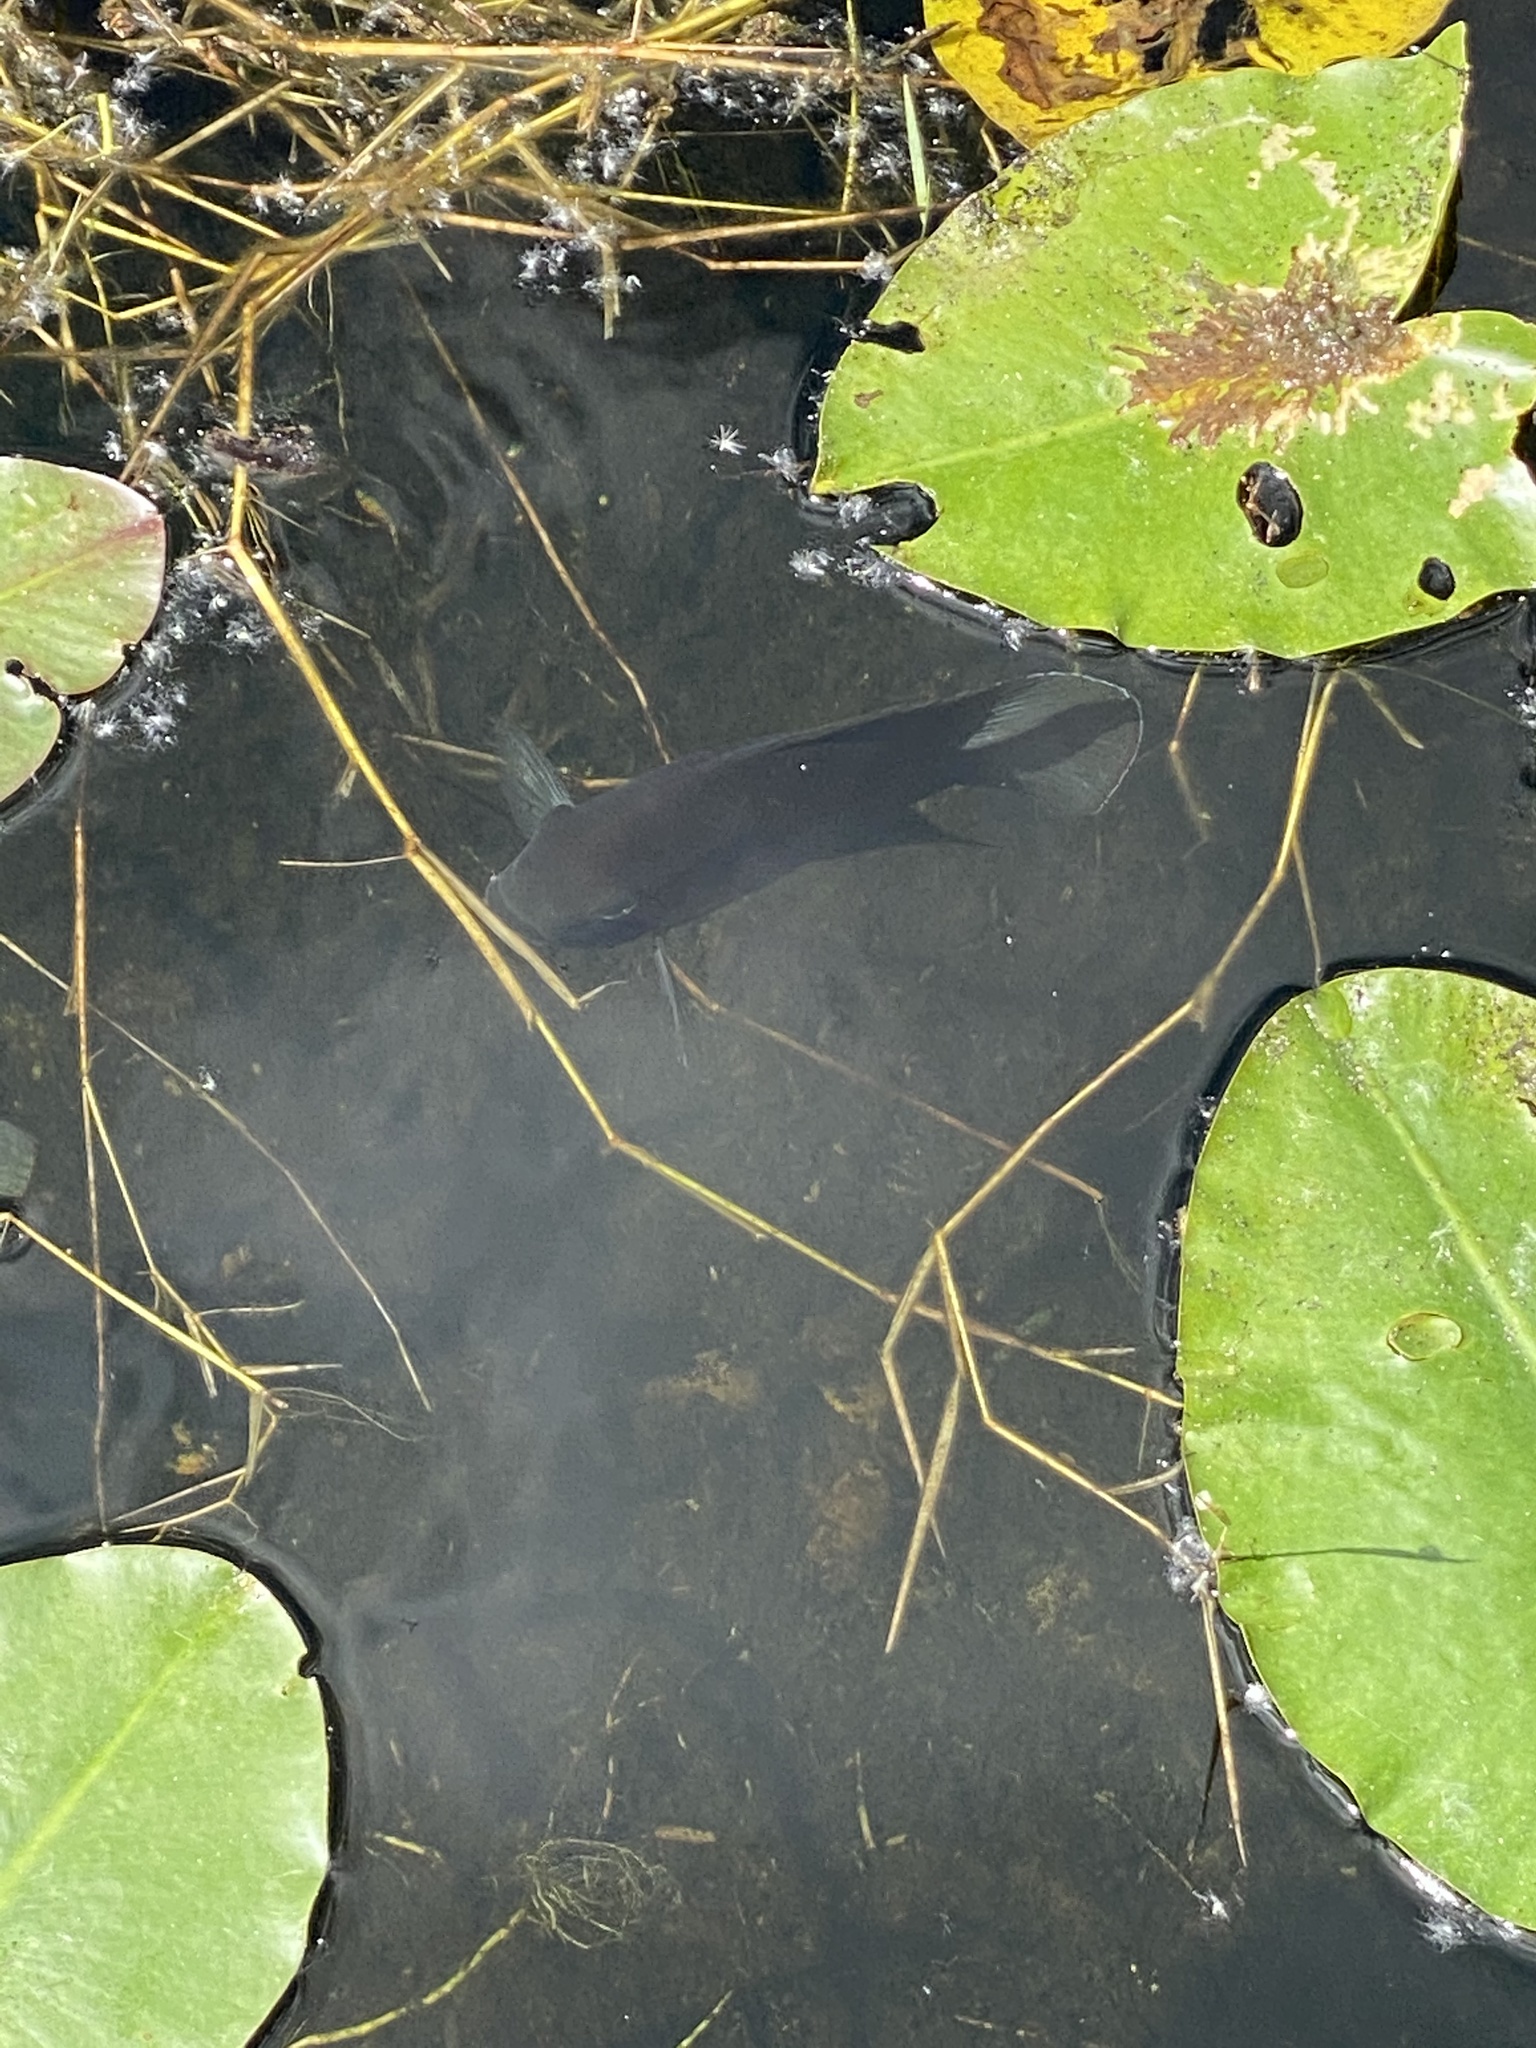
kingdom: Animalia
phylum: Chordata
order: Perciformes
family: Cichlidae
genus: Pelmatolapia
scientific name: Pelmatolapia mariae
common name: Spotted tilapia
